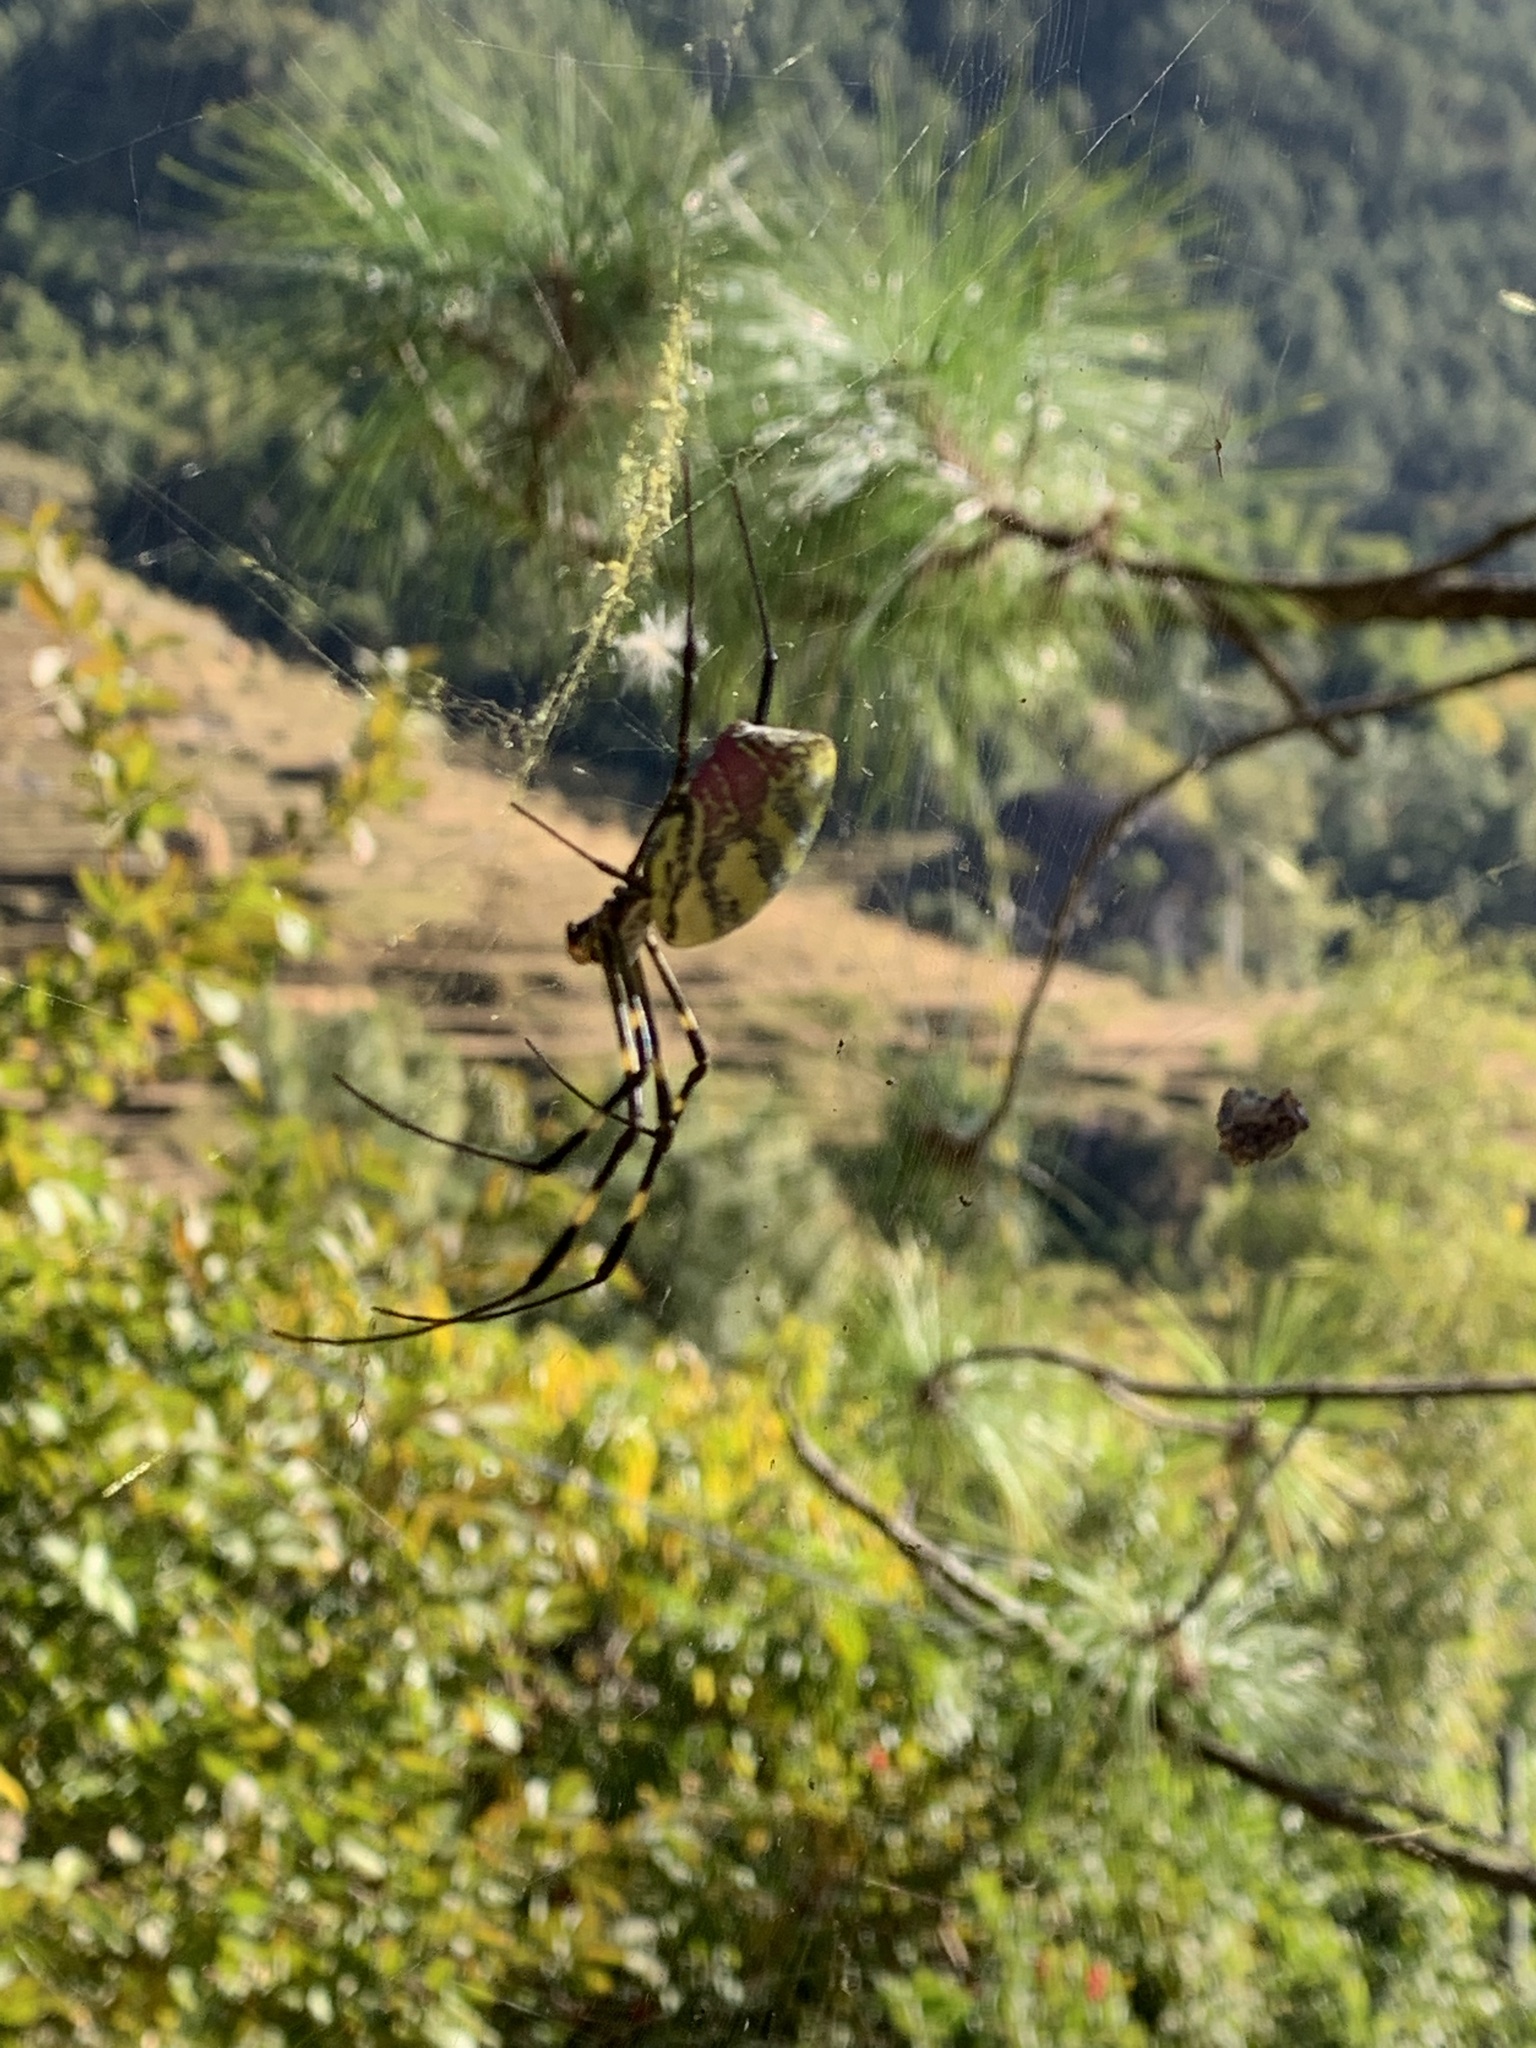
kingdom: Animalia
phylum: Arthropoda
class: Arachnida
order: Araneae
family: Araneidae
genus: Trichonephila
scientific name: Trichonephila clavata
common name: Jorō spider
